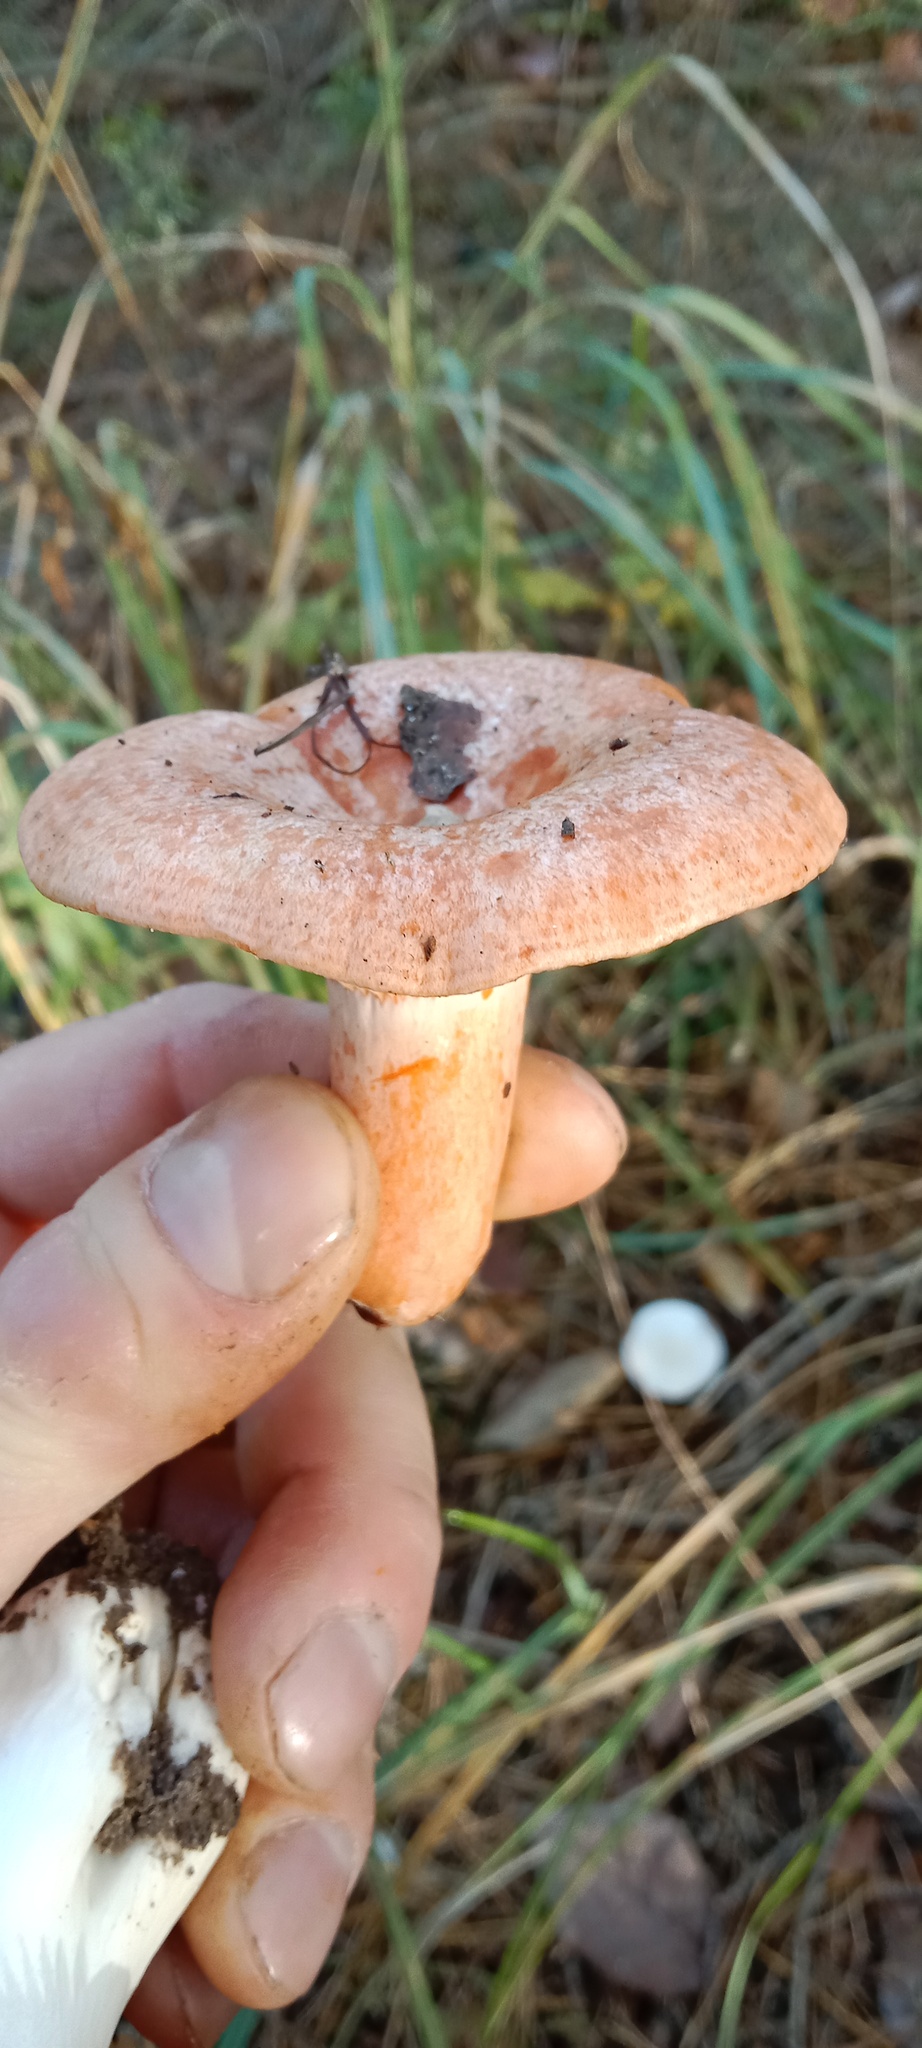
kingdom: Fungi
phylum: Basidiomycota
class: Agaricomycetes
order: Russulales
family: Russulaceae
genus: Lactarius
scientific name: Lactarius deliciosus
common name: Saffron milk-cap
